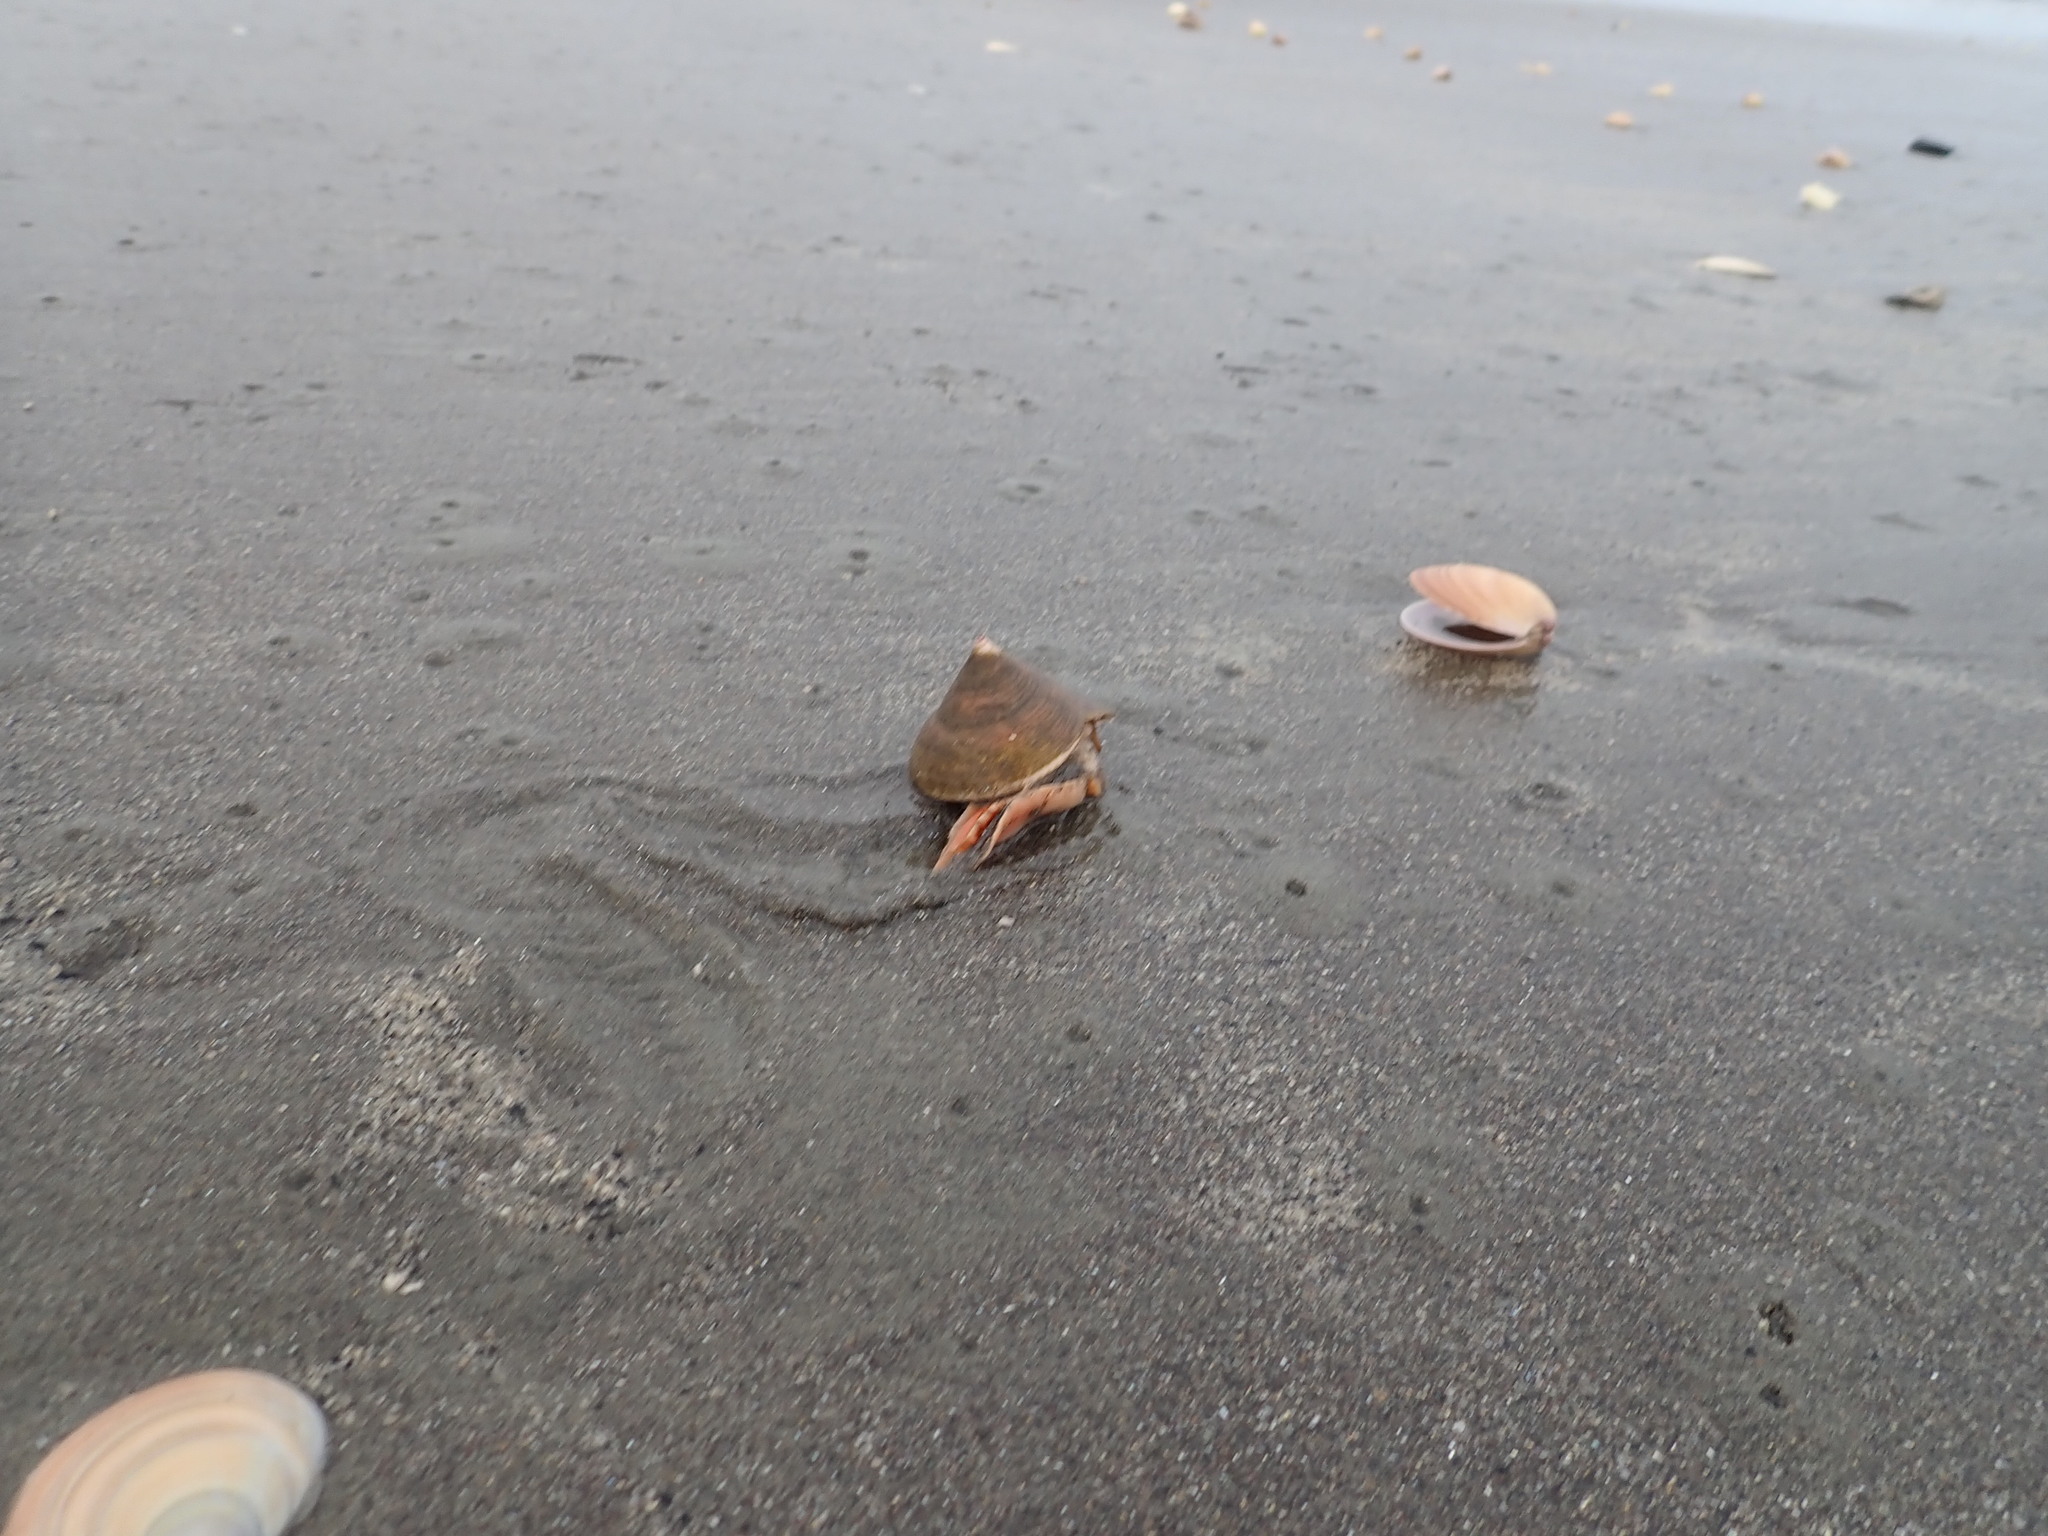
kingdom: Animalia
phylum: Mollusca
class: Gastropoda
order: Trochida
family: Calliostomatidae
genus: Maurea
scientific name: Maurea selecta
